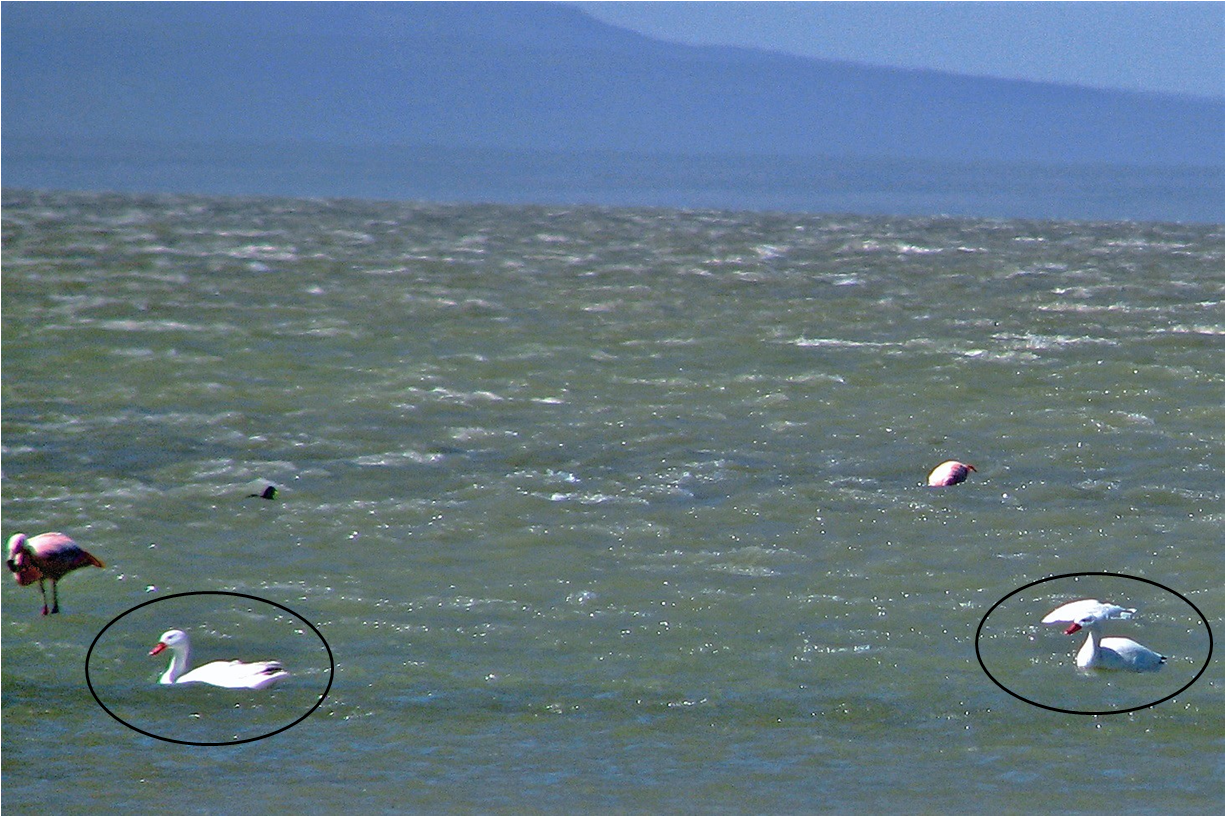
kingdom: Animalia
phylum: Chordata
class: Aves
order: Anseriformes
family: Anatidae
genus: Coscoroba
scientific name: Coscoroba coscoroba
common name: Coscoroba swan
